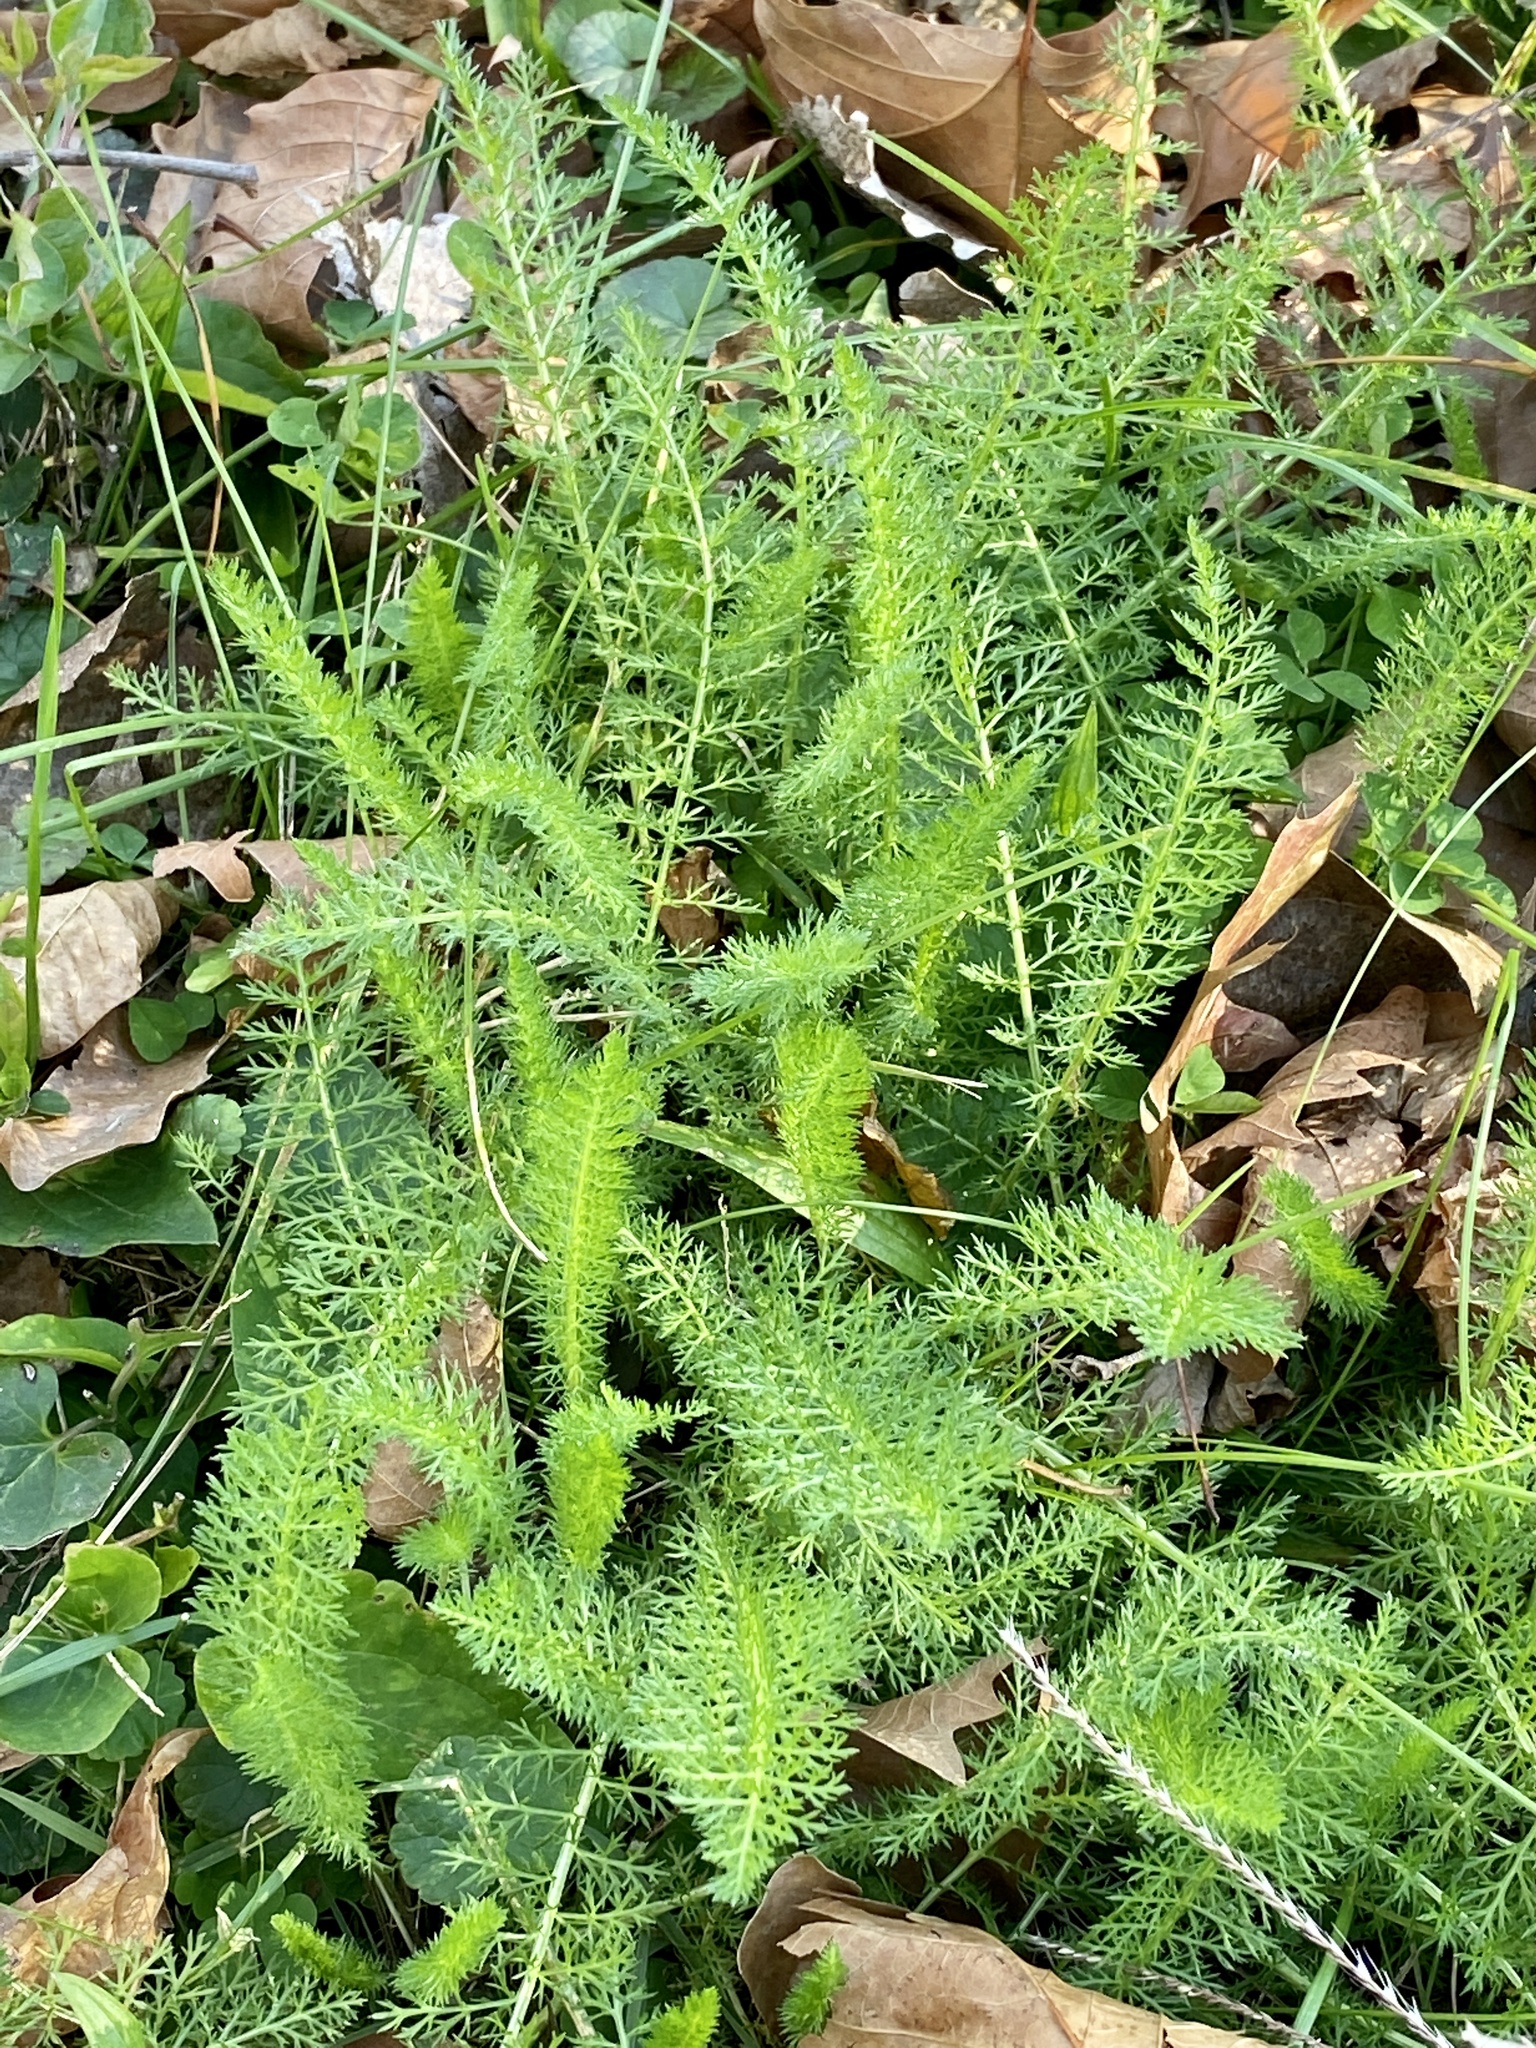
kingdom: Plantae
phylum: Tracheophyta
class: Magnoliopsida
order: Asterales
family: Asteraceae
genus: Achillea
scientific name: Achillea millefolium
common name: Yarrow
